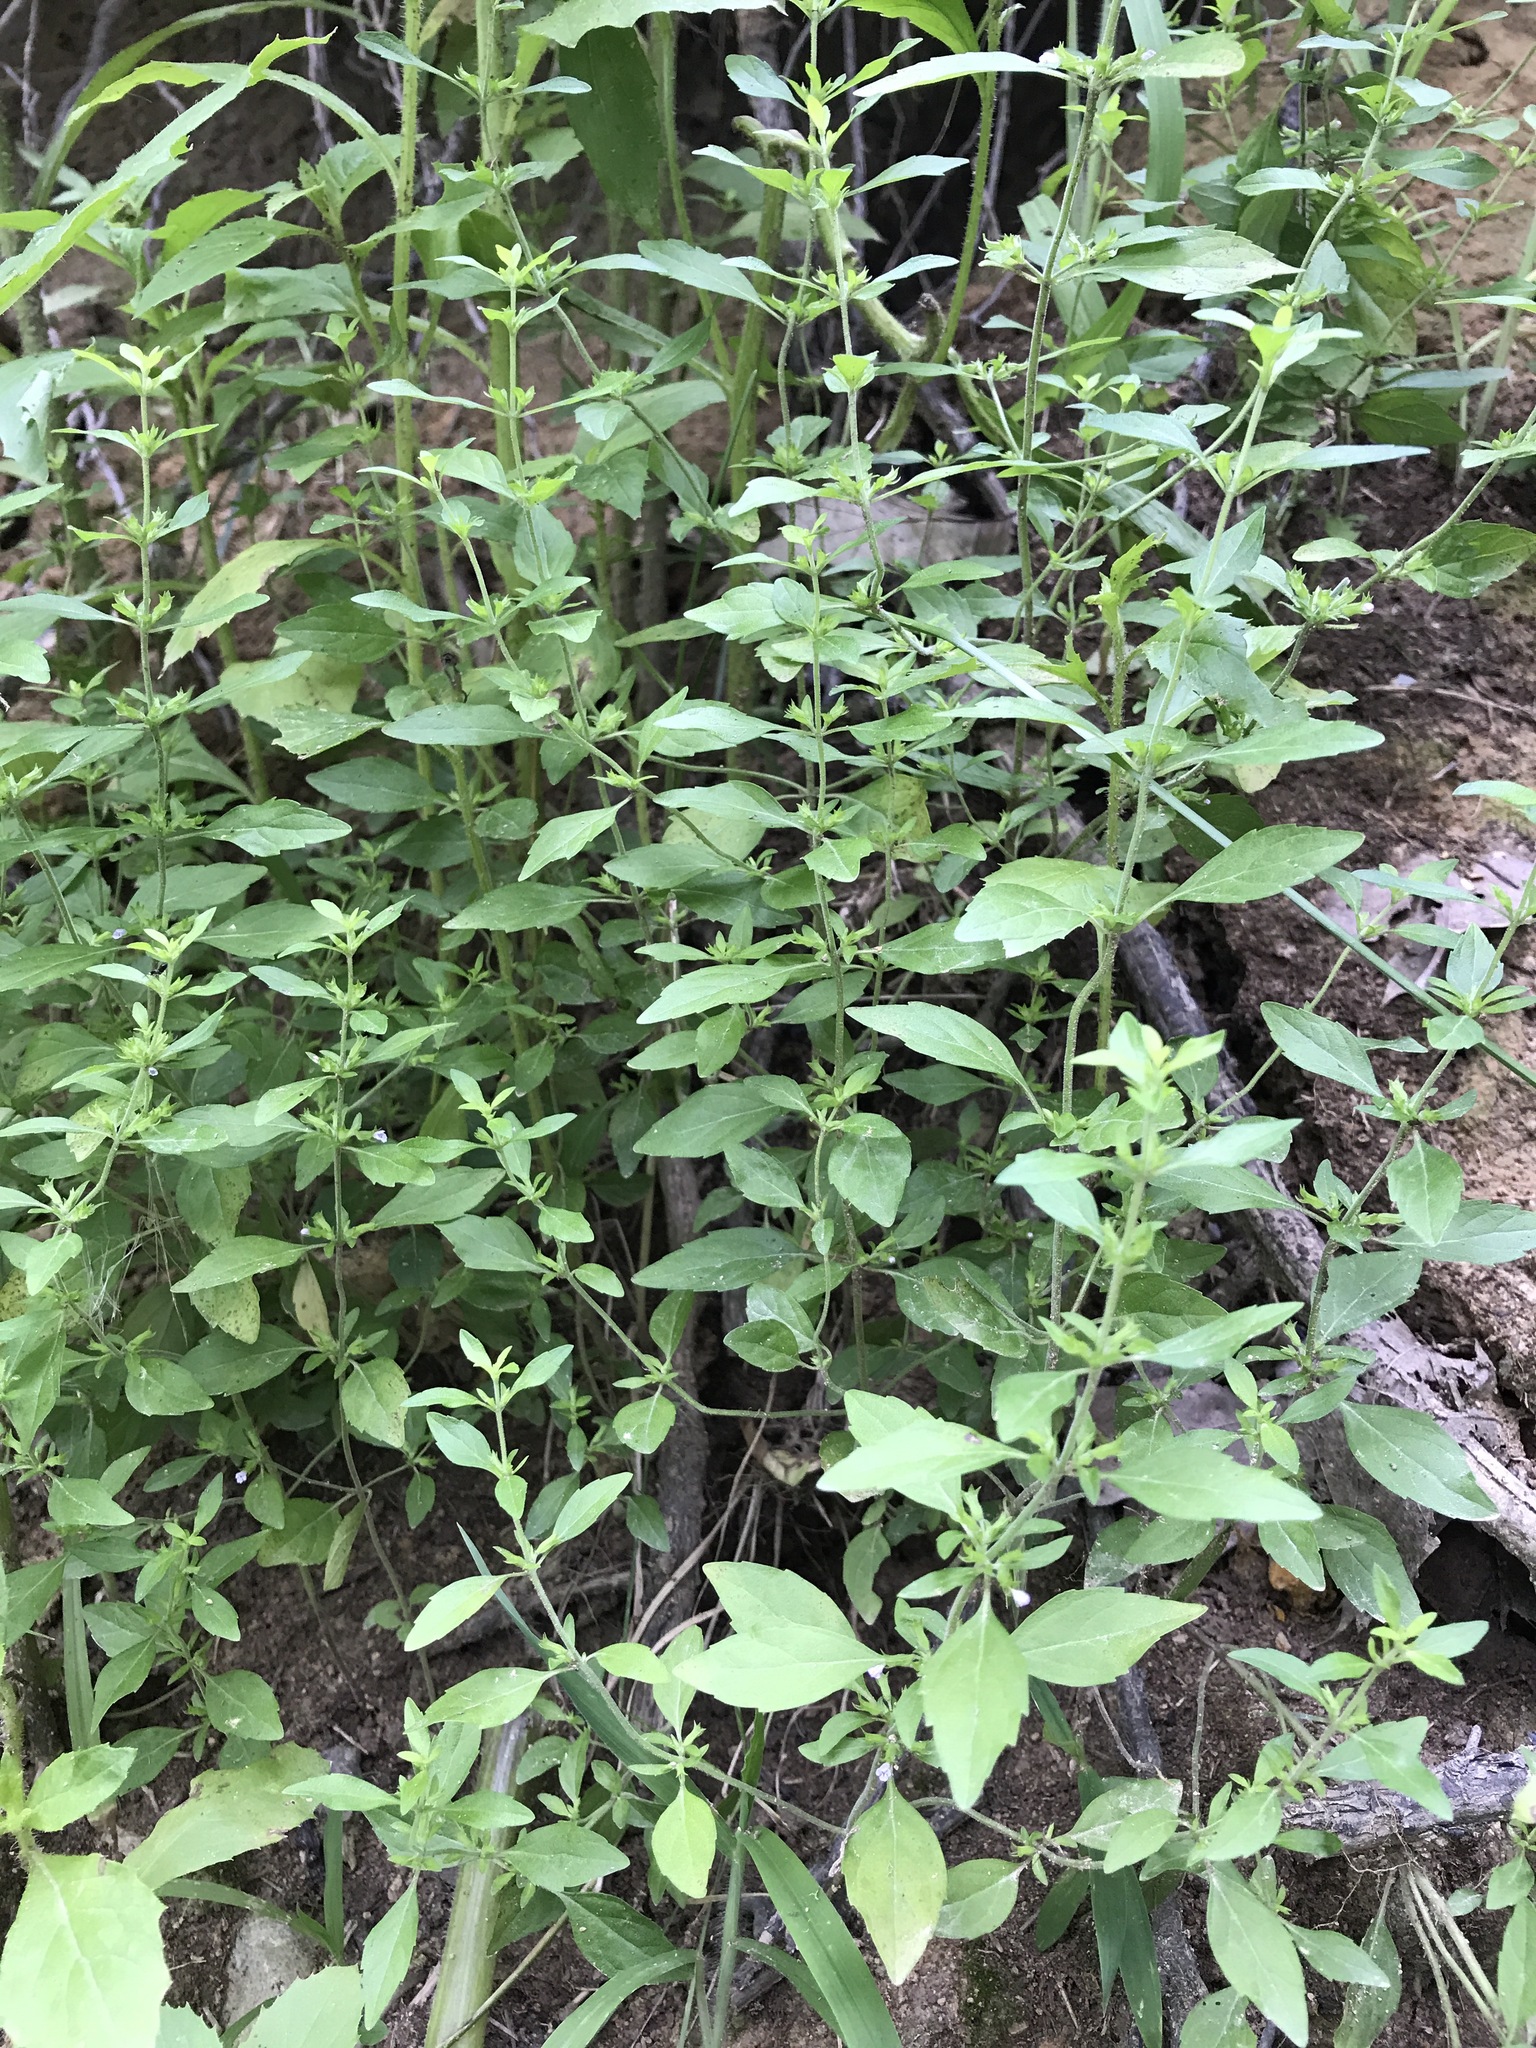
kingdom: Plantae
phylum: Tracheophyta
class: Magnoliopsida
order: Lamiales
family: Lamiaceae
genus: Hedeoma
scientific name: Hedeoma pulegioides
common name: American false pennyroyal
